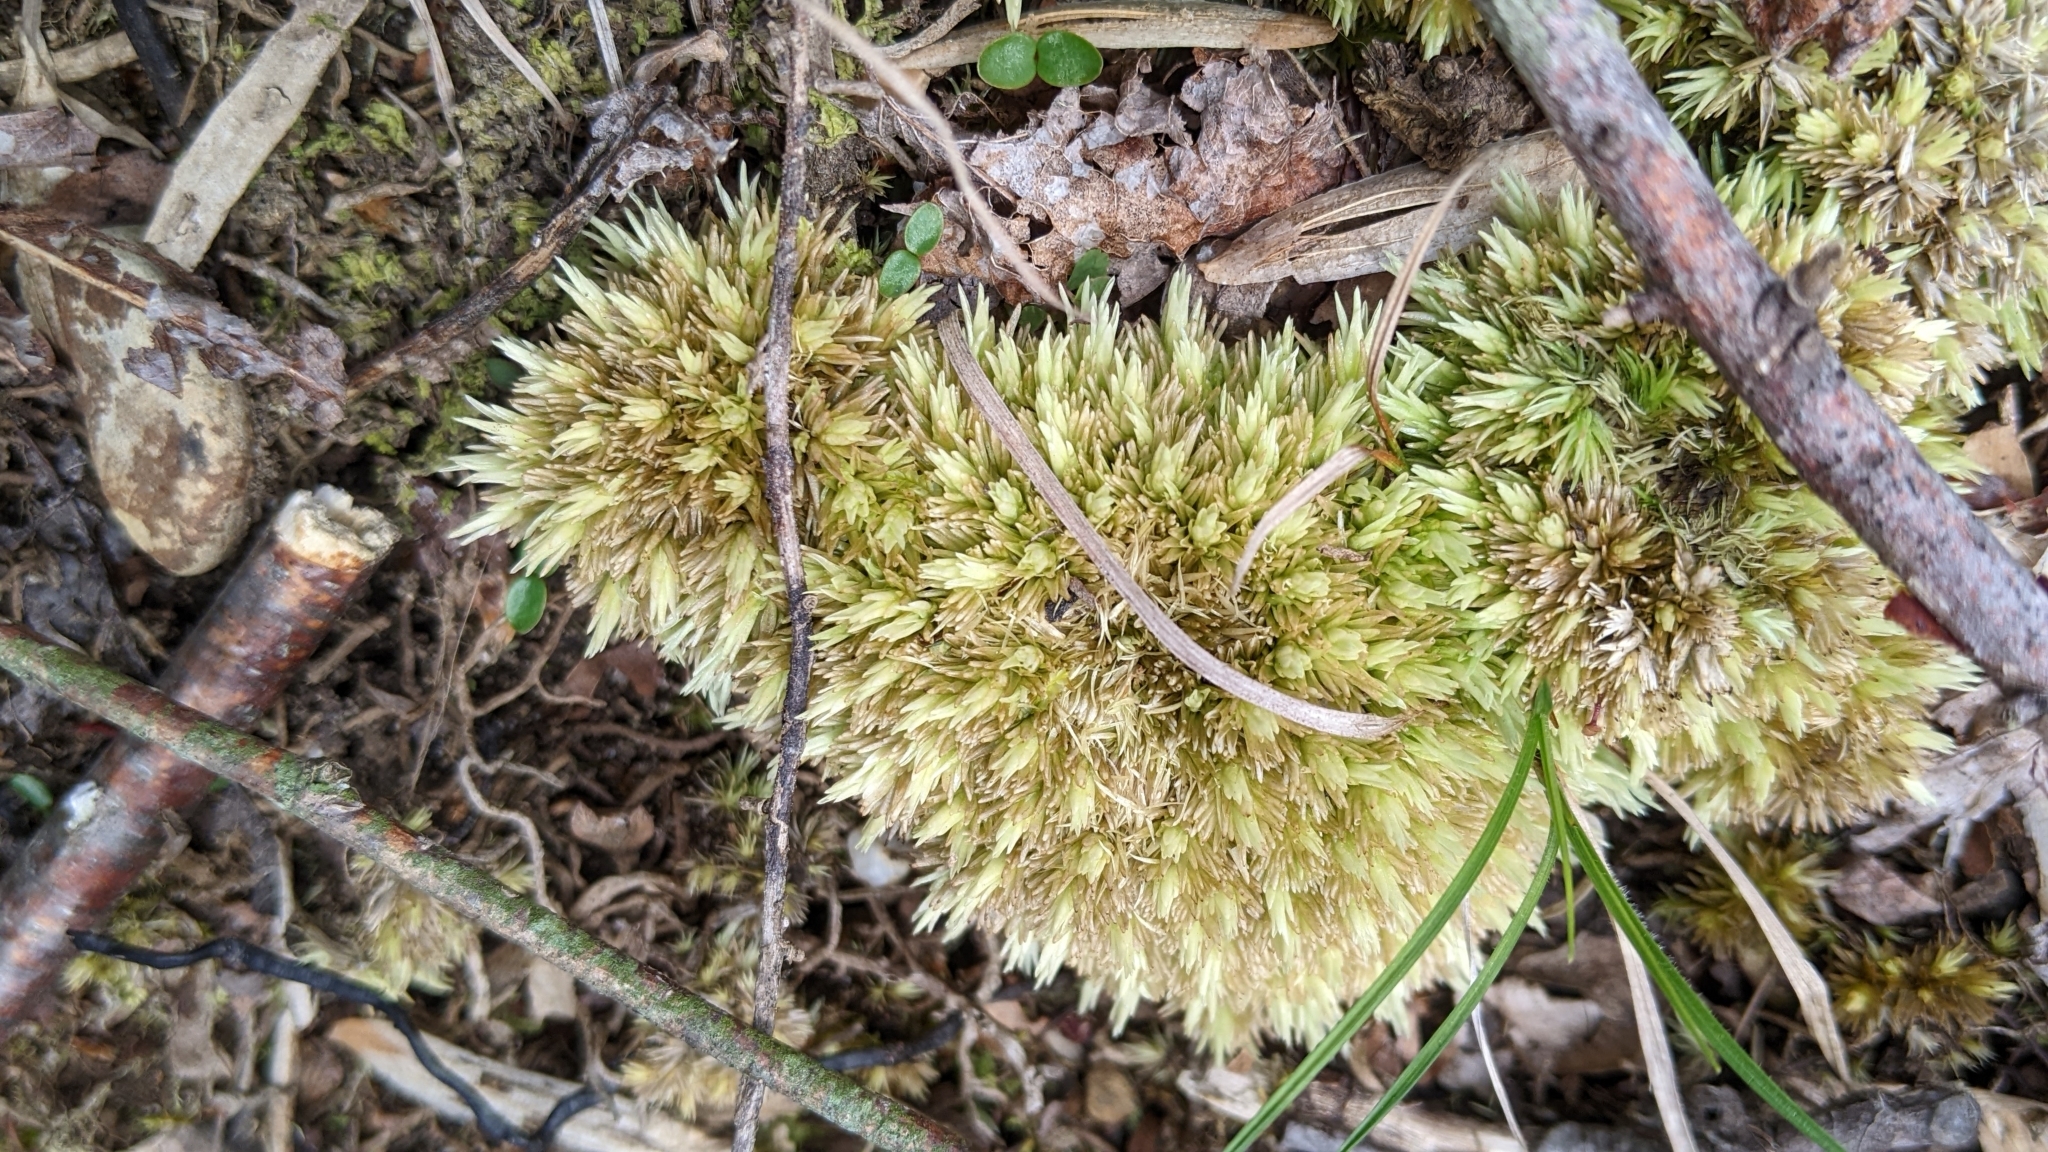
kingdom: Plantae
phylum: Bryophyta
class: Bryopsida
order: Dicranales
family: Leucobryaceae
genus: Leucobryum
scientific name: Leucobryum glaucum
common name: Large white-moss
